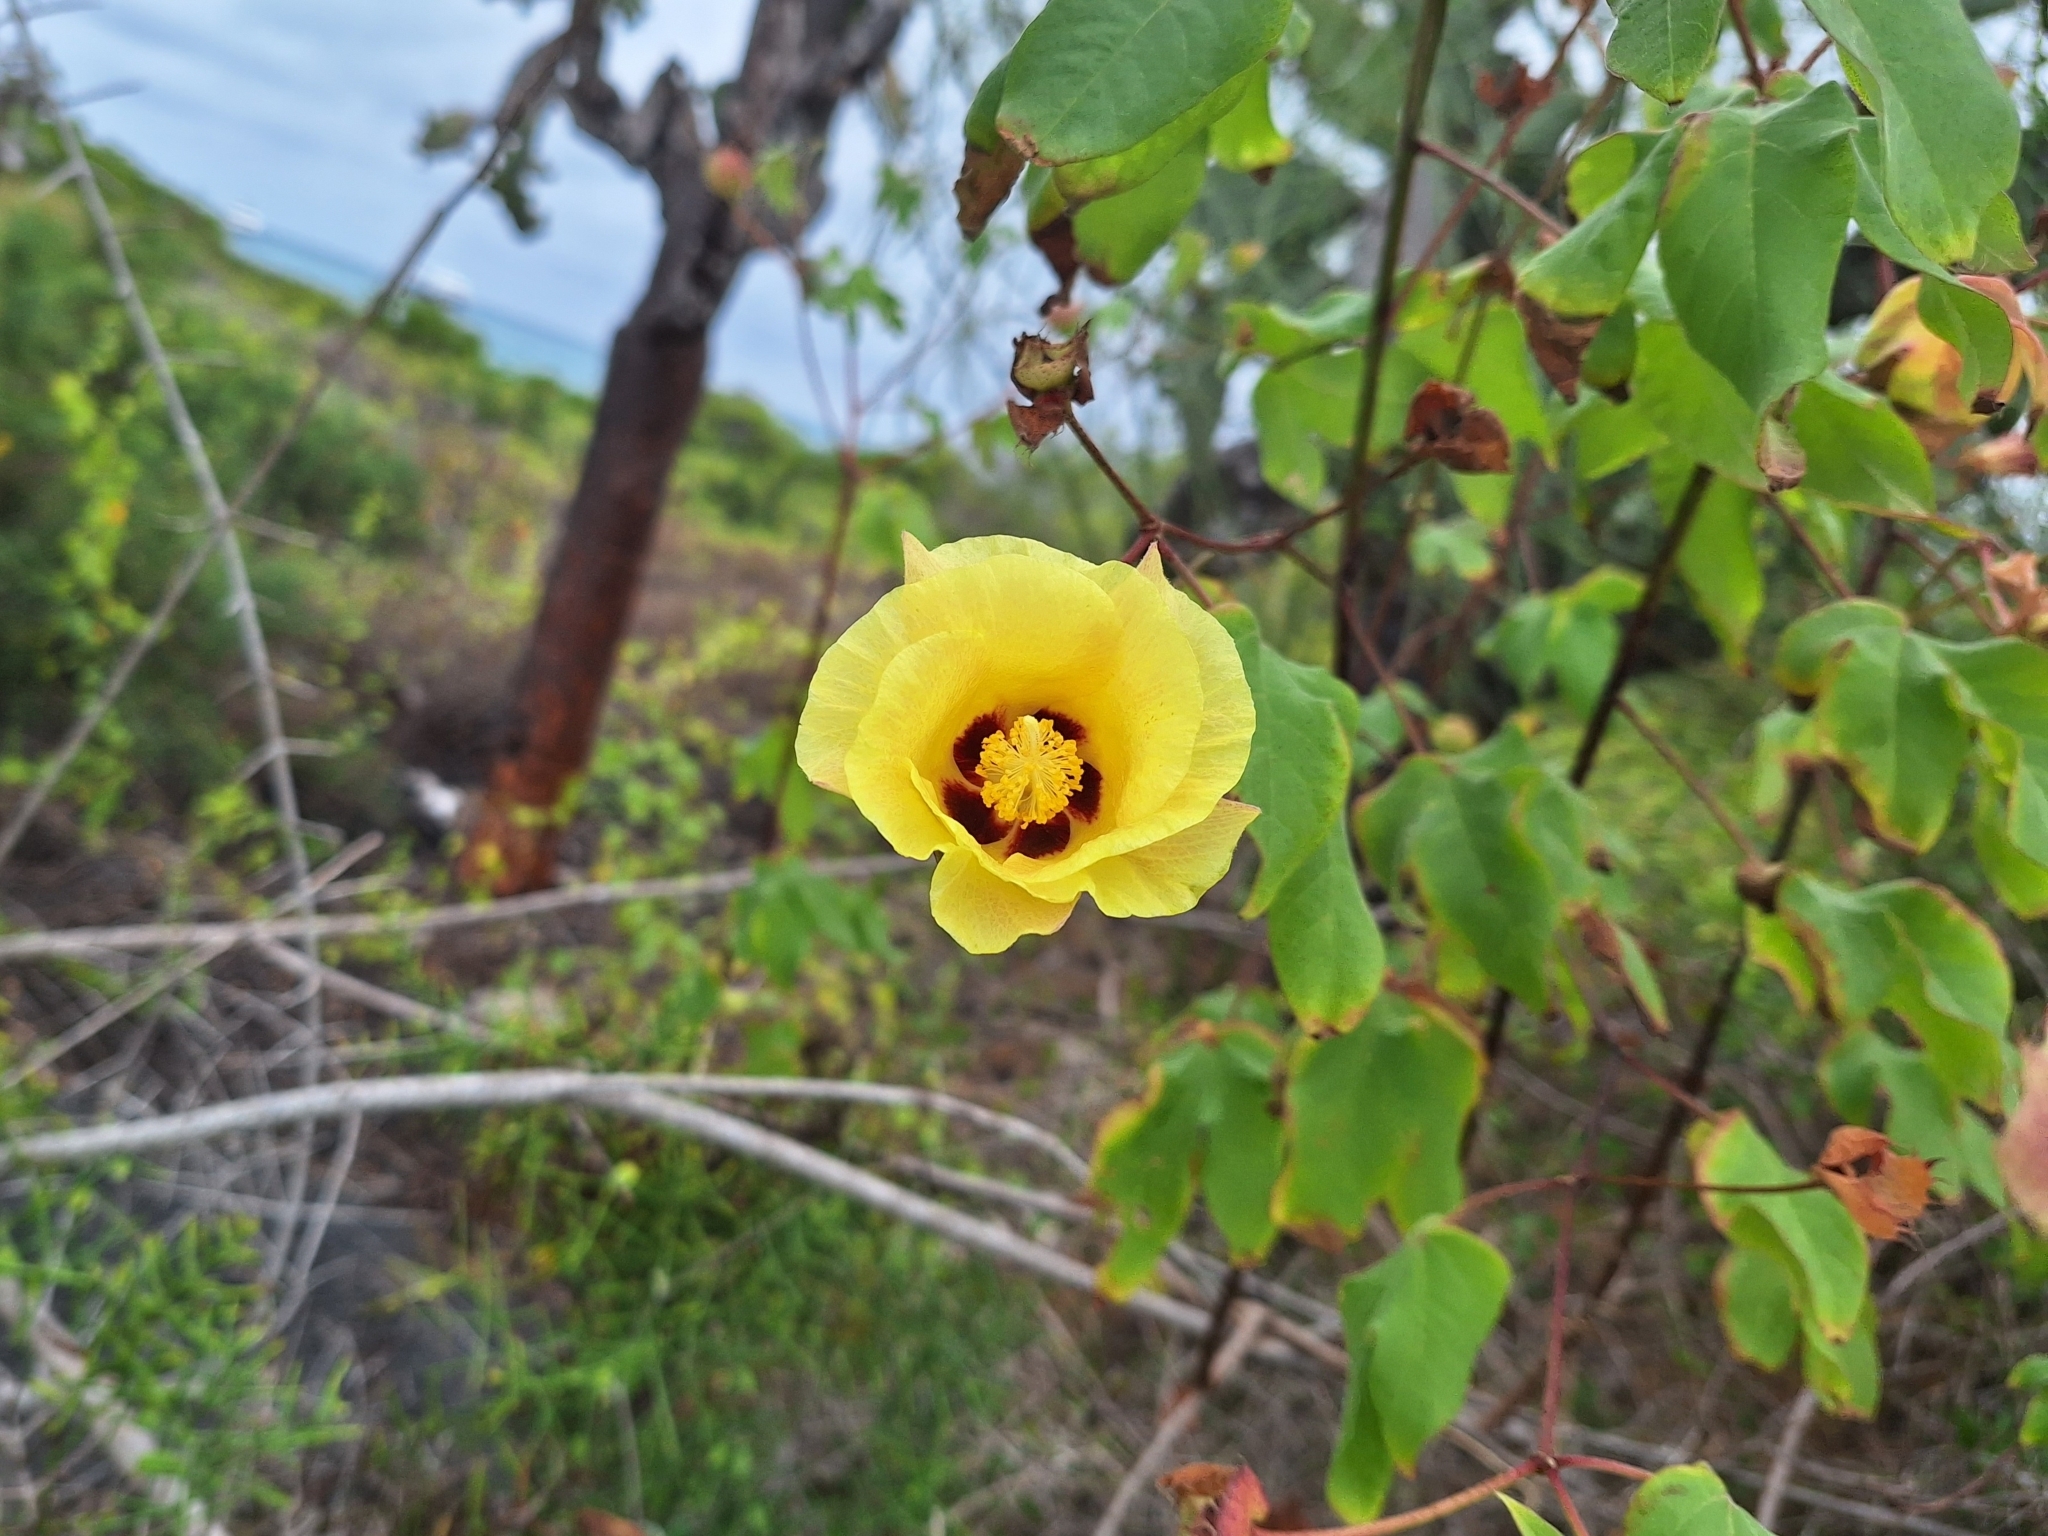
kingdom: Plantae
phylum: Tracheophyta
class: Magnoliopsida
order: Malvales
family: Malvaceae
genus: Gossypium
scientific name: Gossypium darwinii
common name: Darwin's cotton
